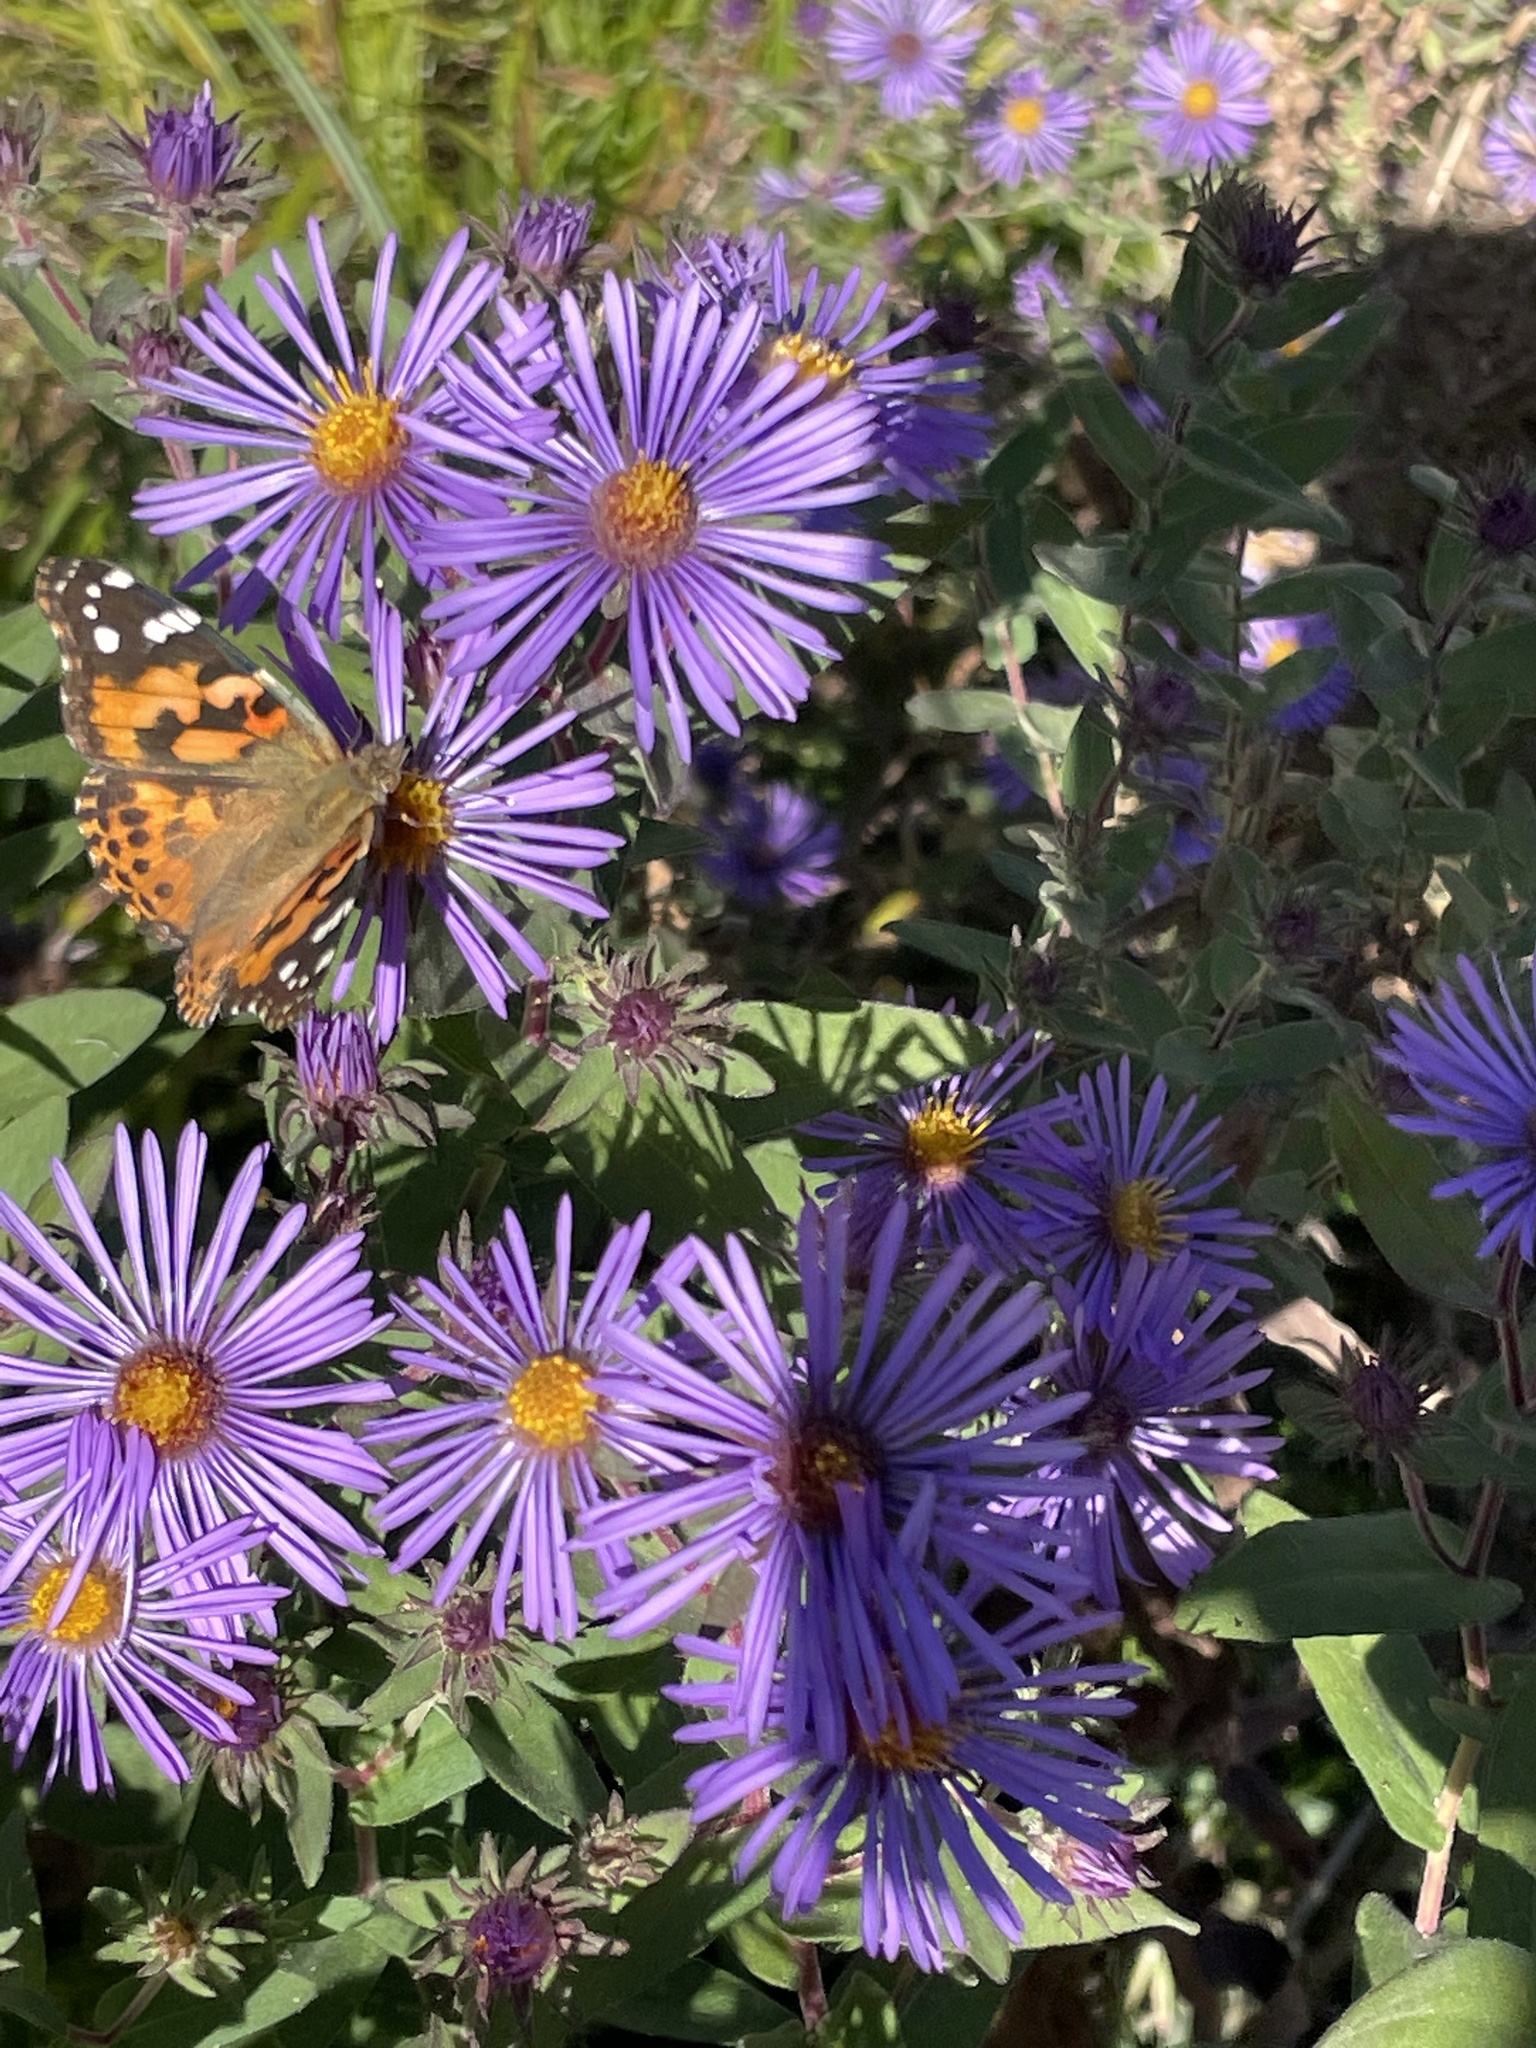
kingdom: Animalia
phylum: Arthropoda
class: Insecta
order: Lepidoptera
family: Nymphalidae
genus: Vanessa
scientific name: Vanessa cardui
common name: Painted lady
